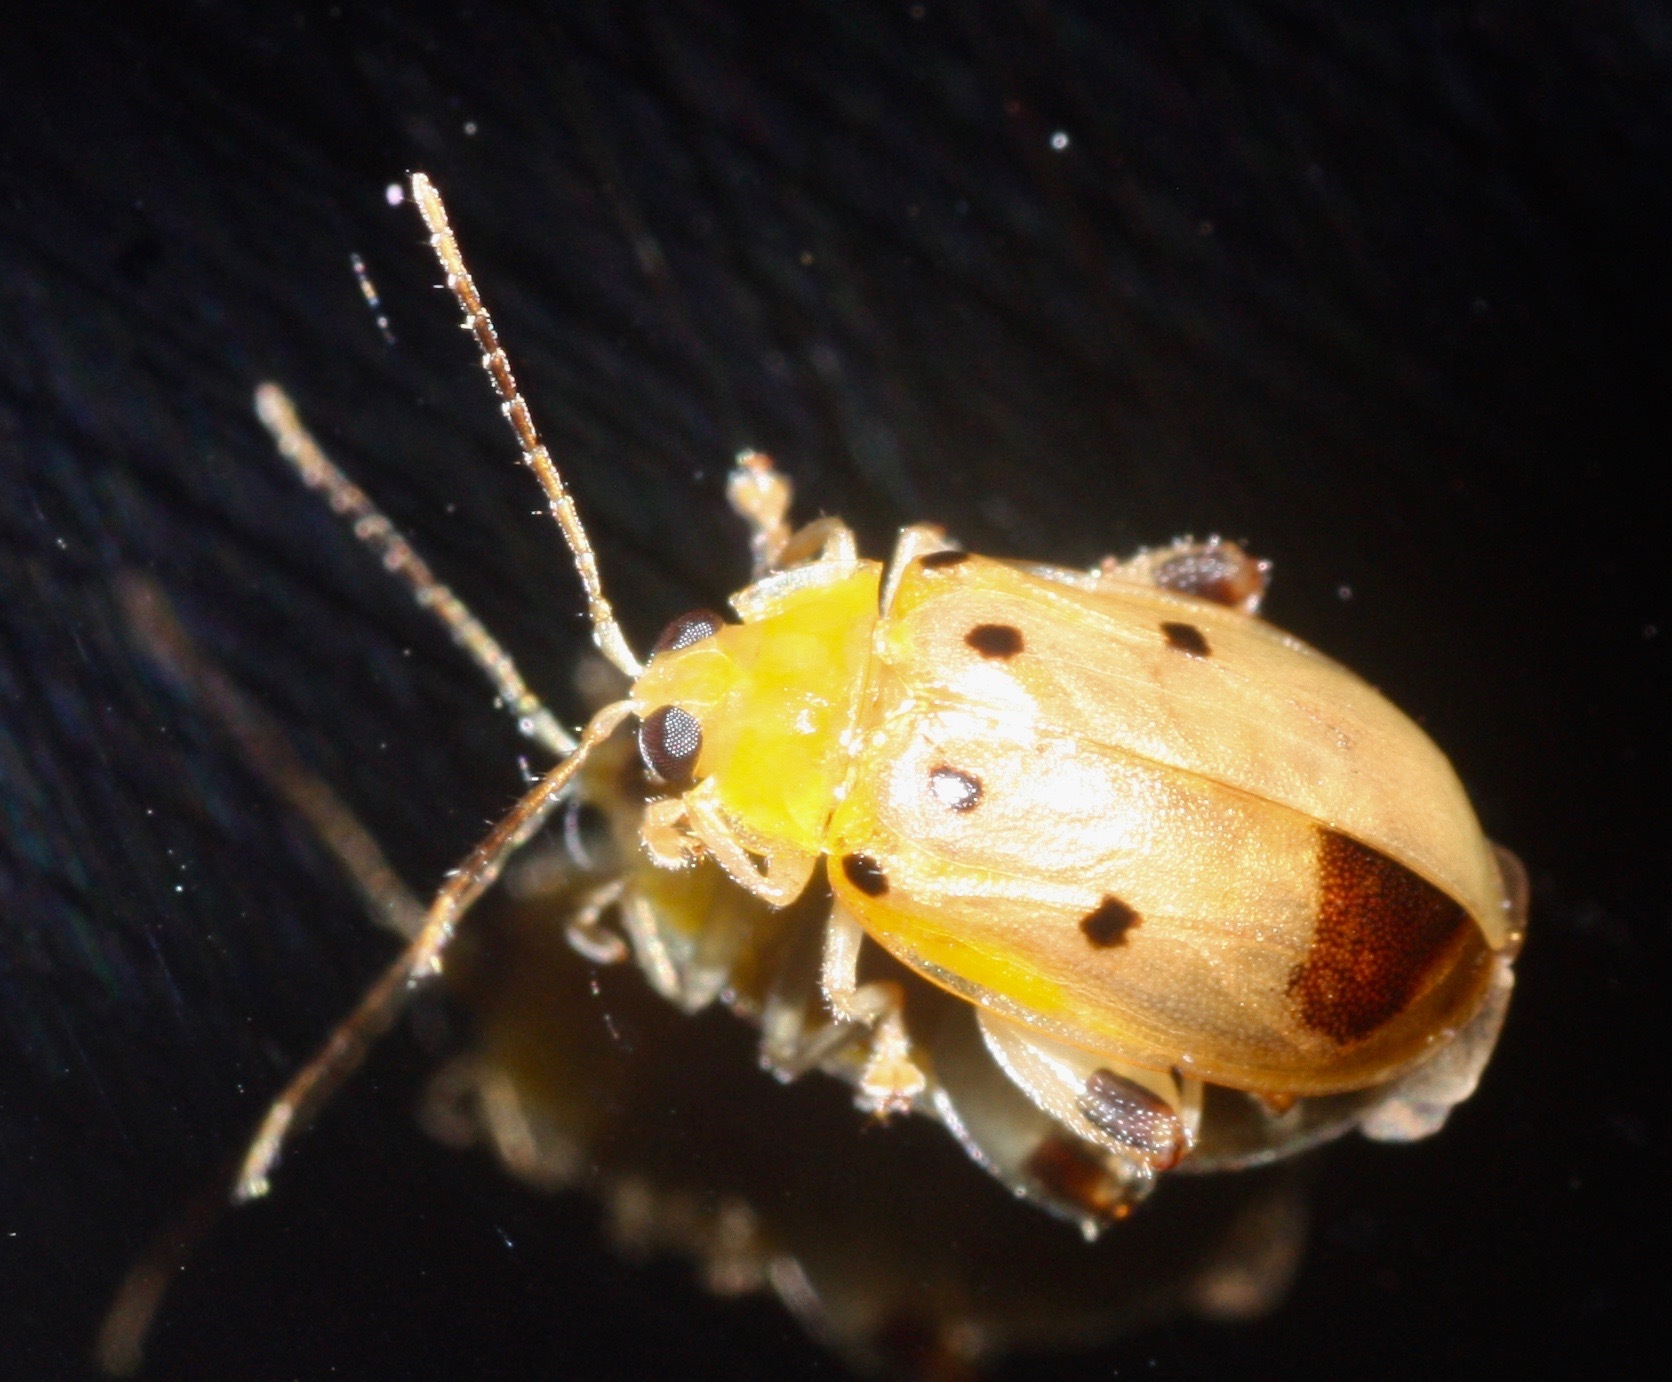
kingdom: Animalia
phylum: Arthropoda
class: Insecta
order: Coleoptera
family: Chrysomelidae
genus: Walterianella
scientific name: Walterianella humeralis
